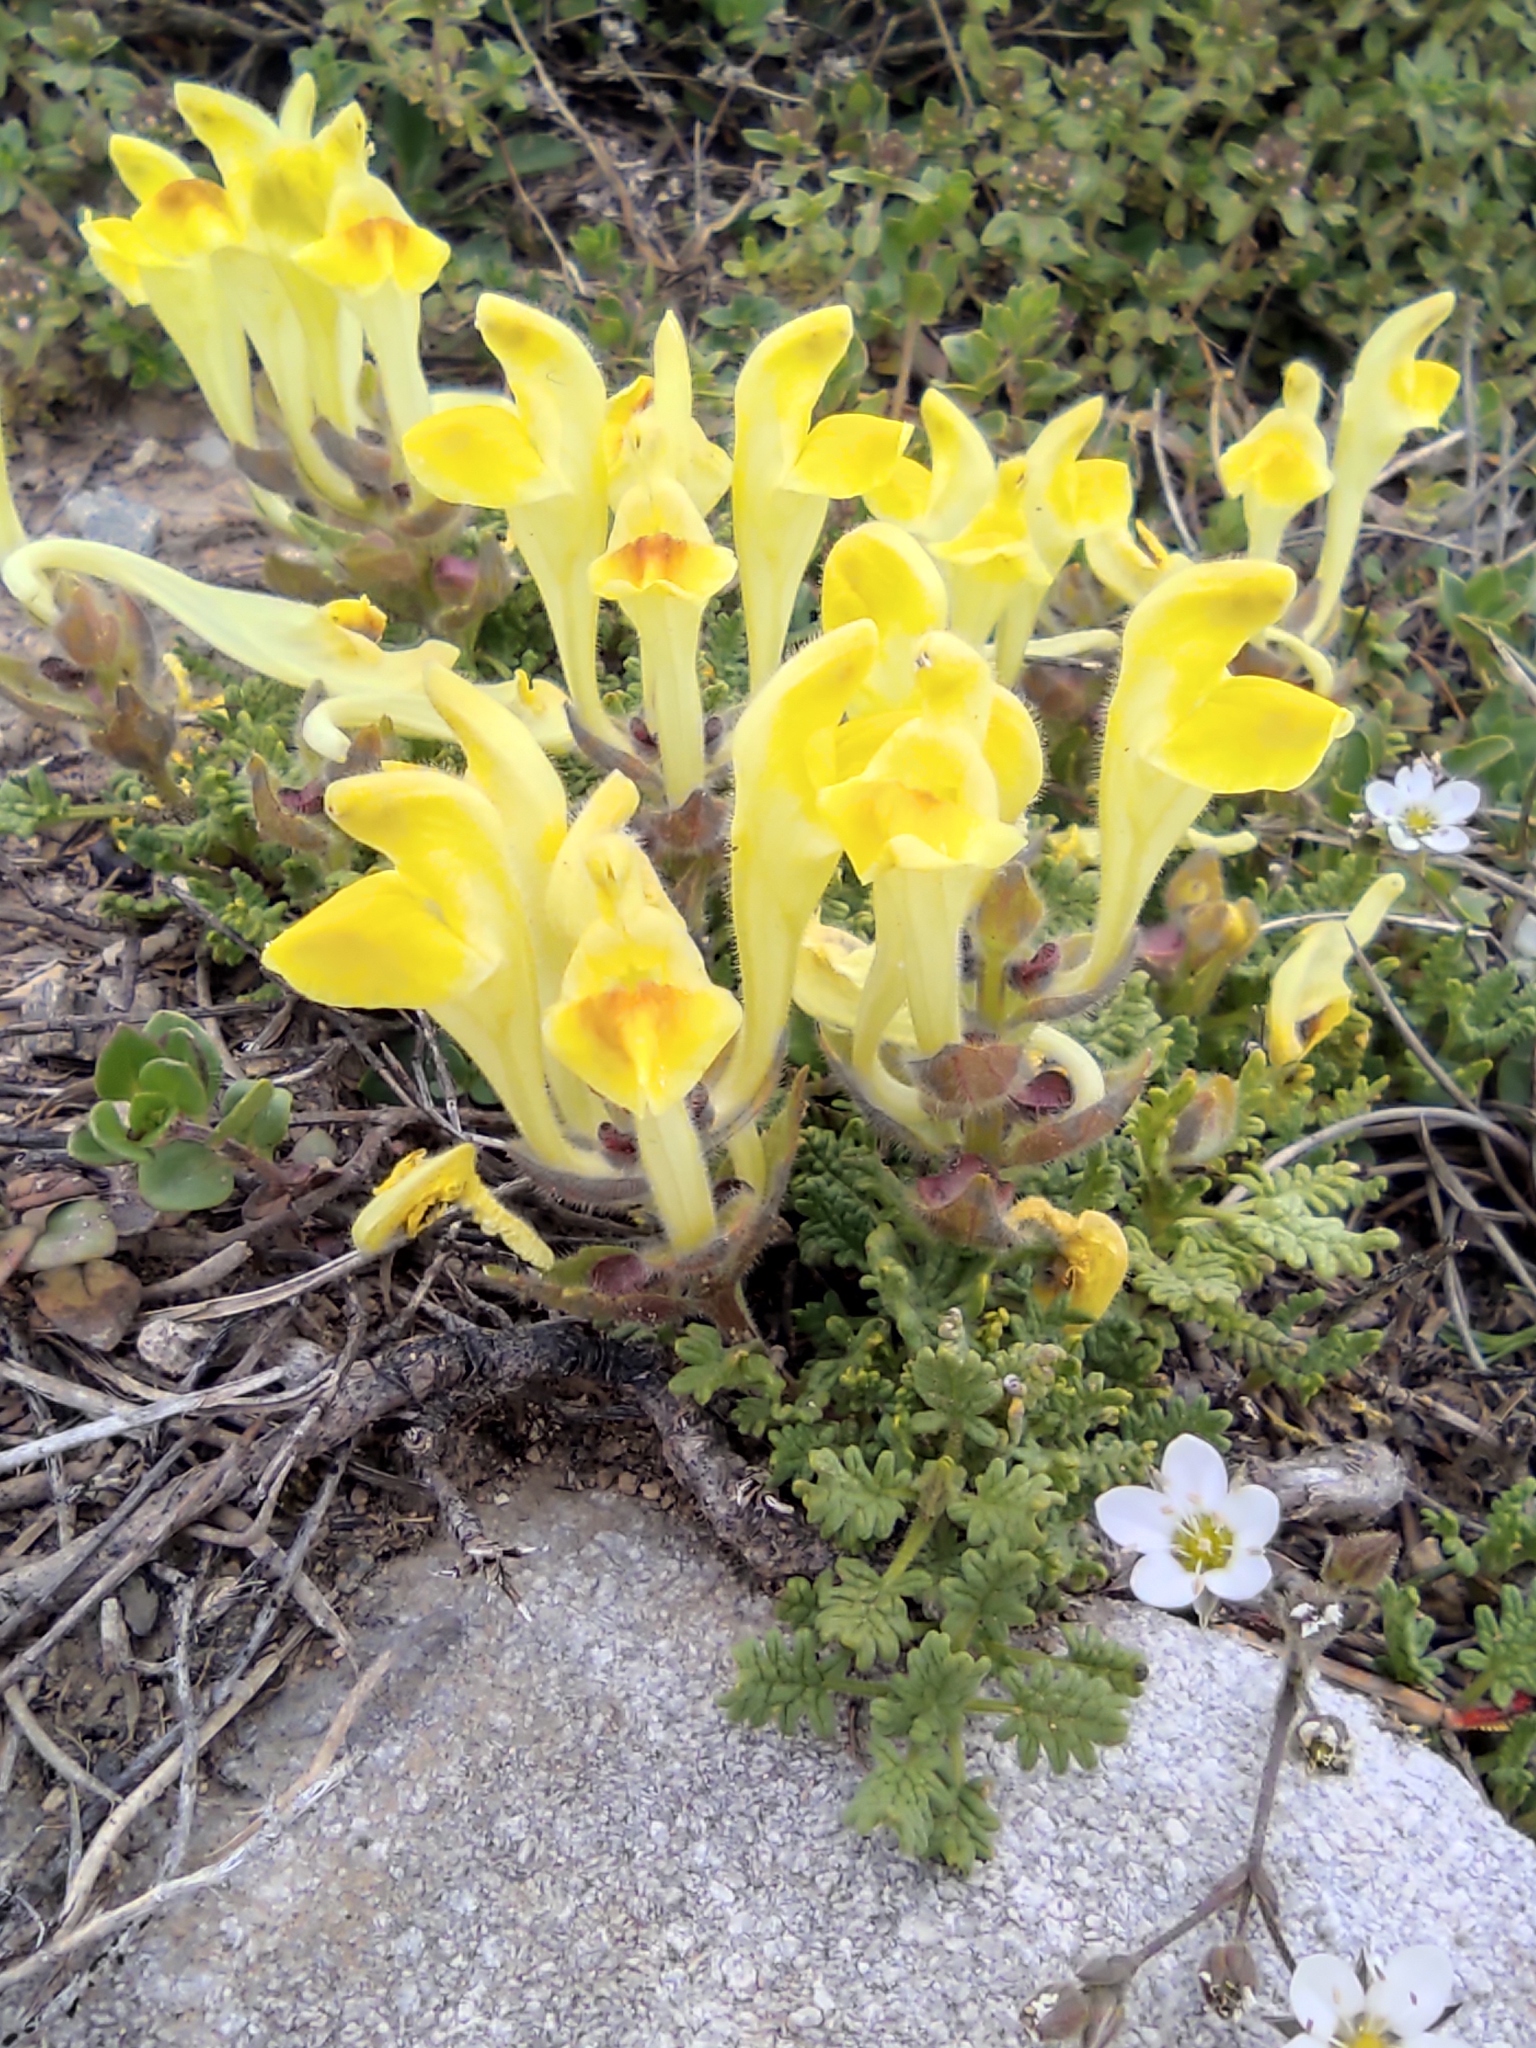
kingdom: Plantae
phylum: Tracheophyta
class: Magnoliopsida
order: Lamiales
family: Lamiaceae
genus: Scutellaria
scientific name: Scutellaria orientalis
